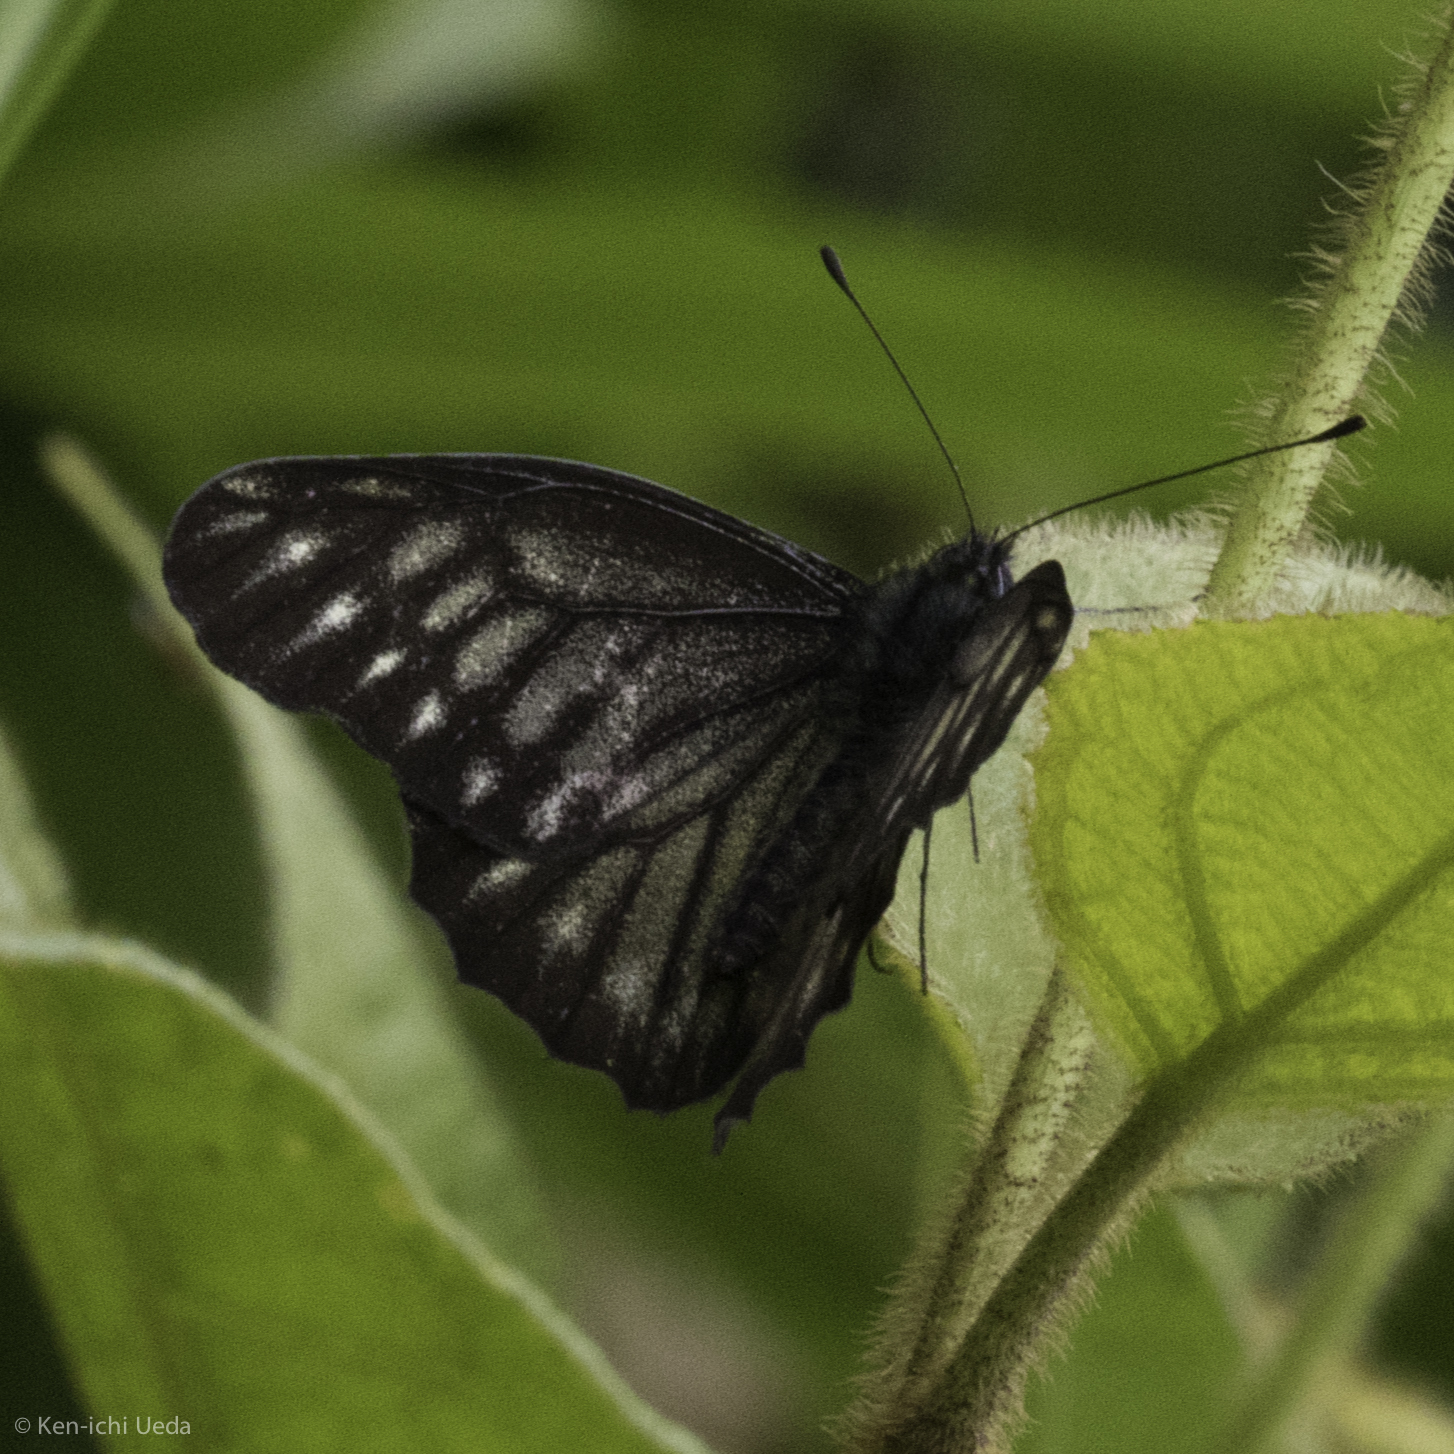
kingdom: Animalia
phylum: Arthropoda
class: Insecta
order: Lepidoptera
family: Pieridae
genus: Catasticta
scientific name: Catasticta ctemene
